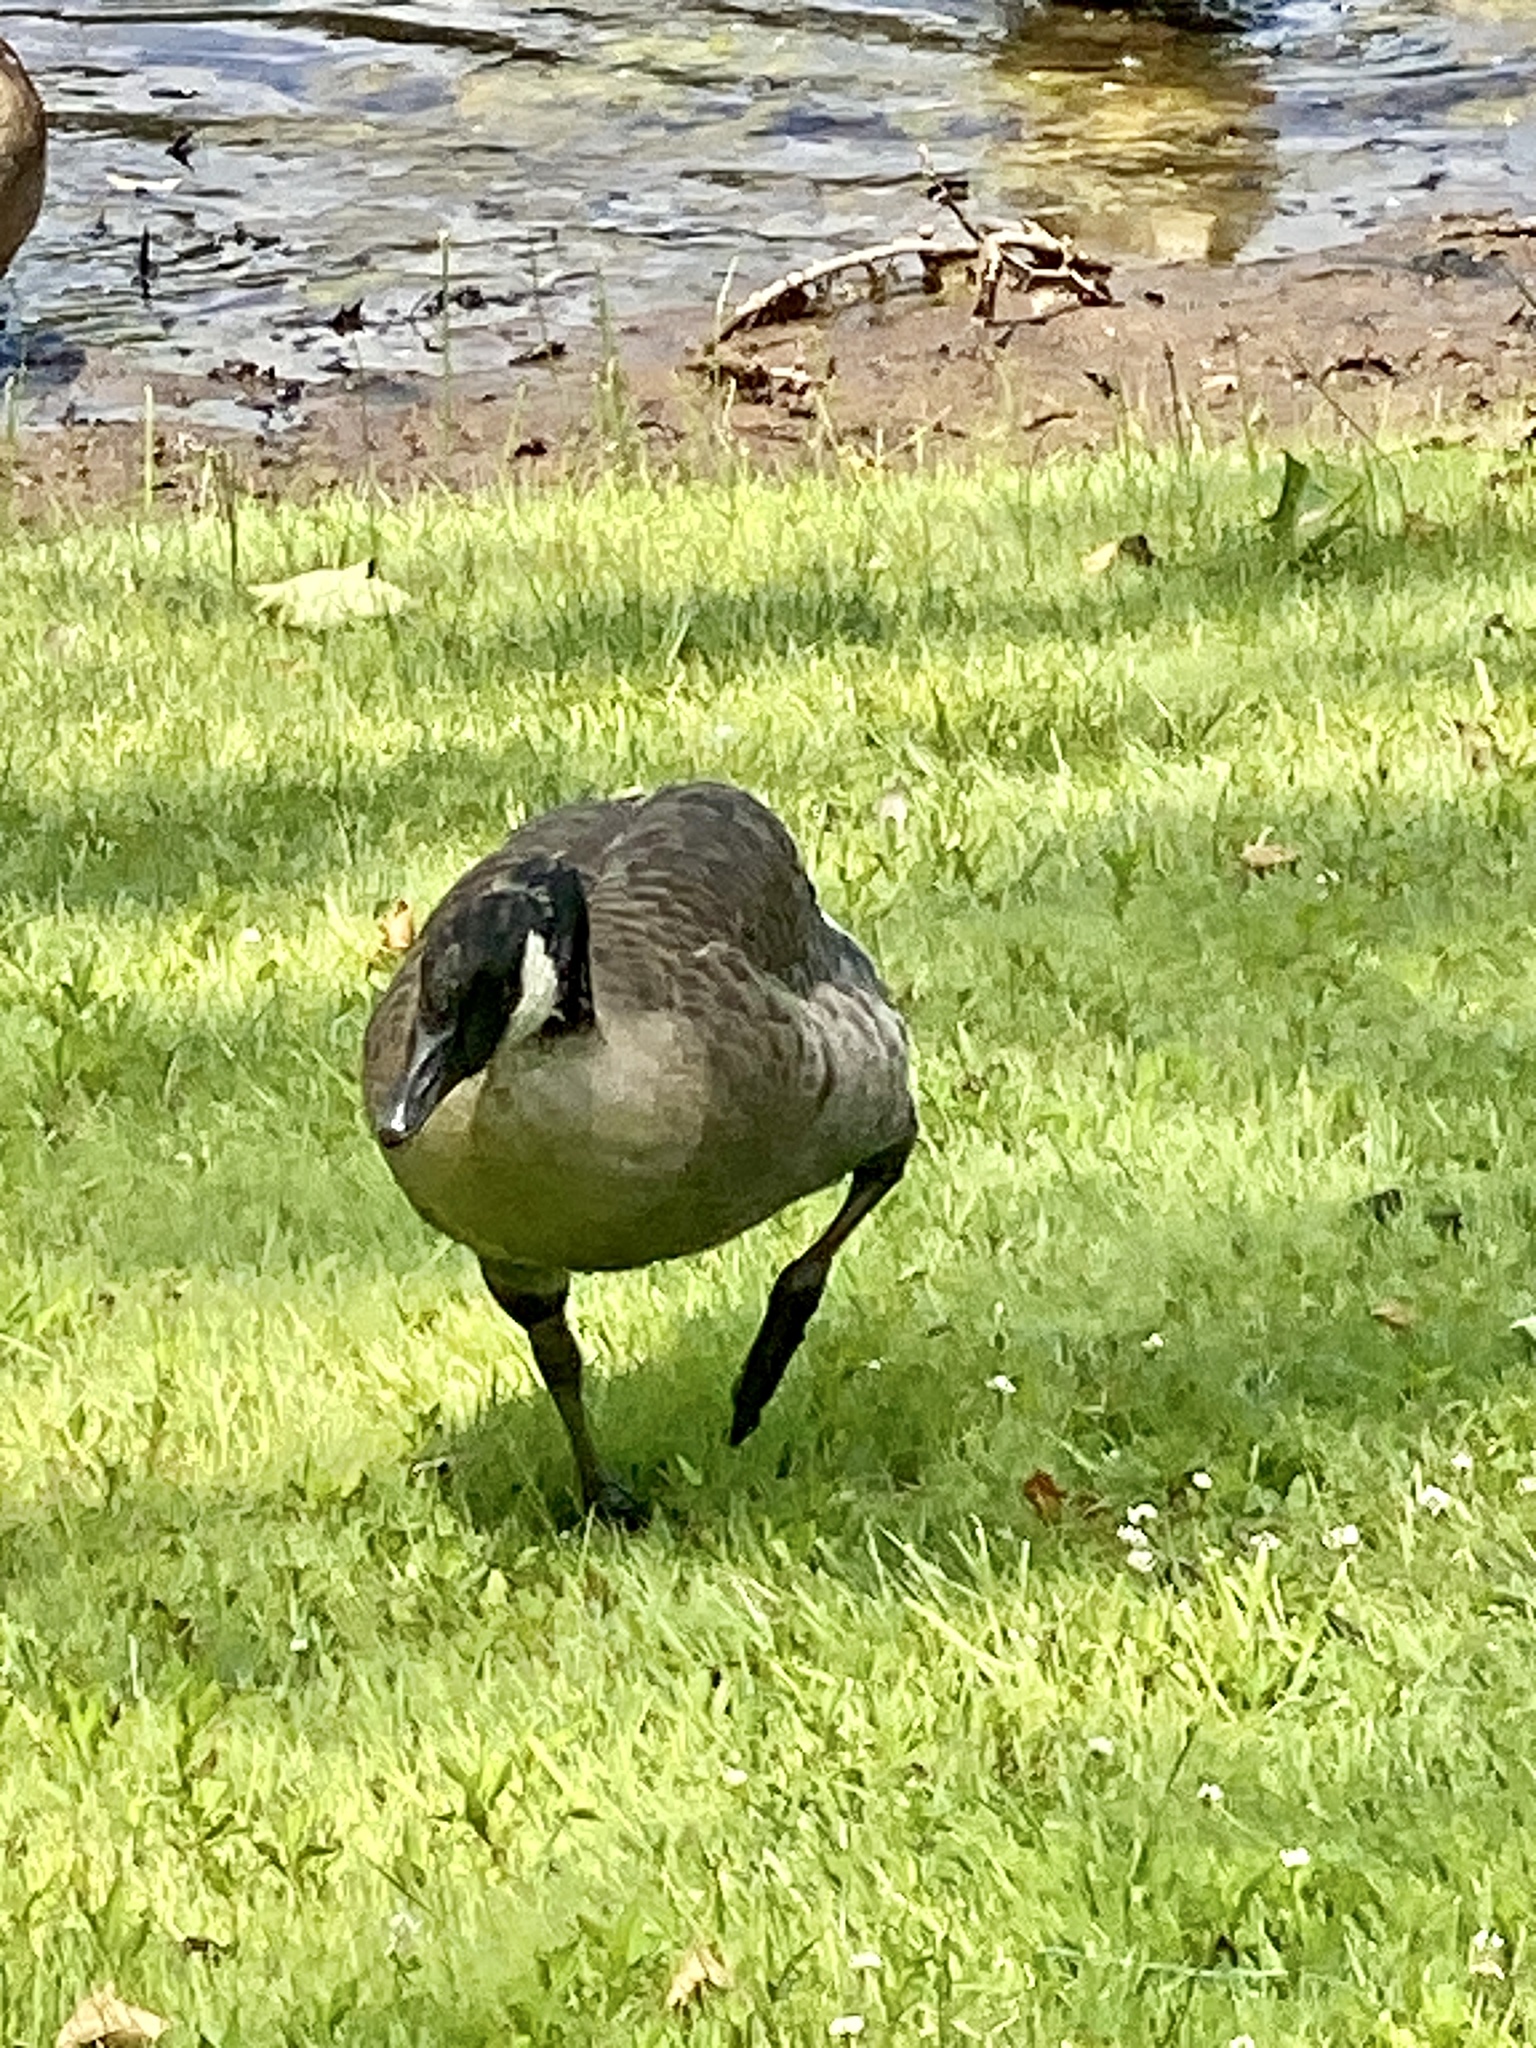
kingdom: Animalia
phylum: Chordata
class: Aves
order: Anseriformes
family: Anatidae
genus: Branta
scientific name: Branta canadensis
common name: Canada goose
